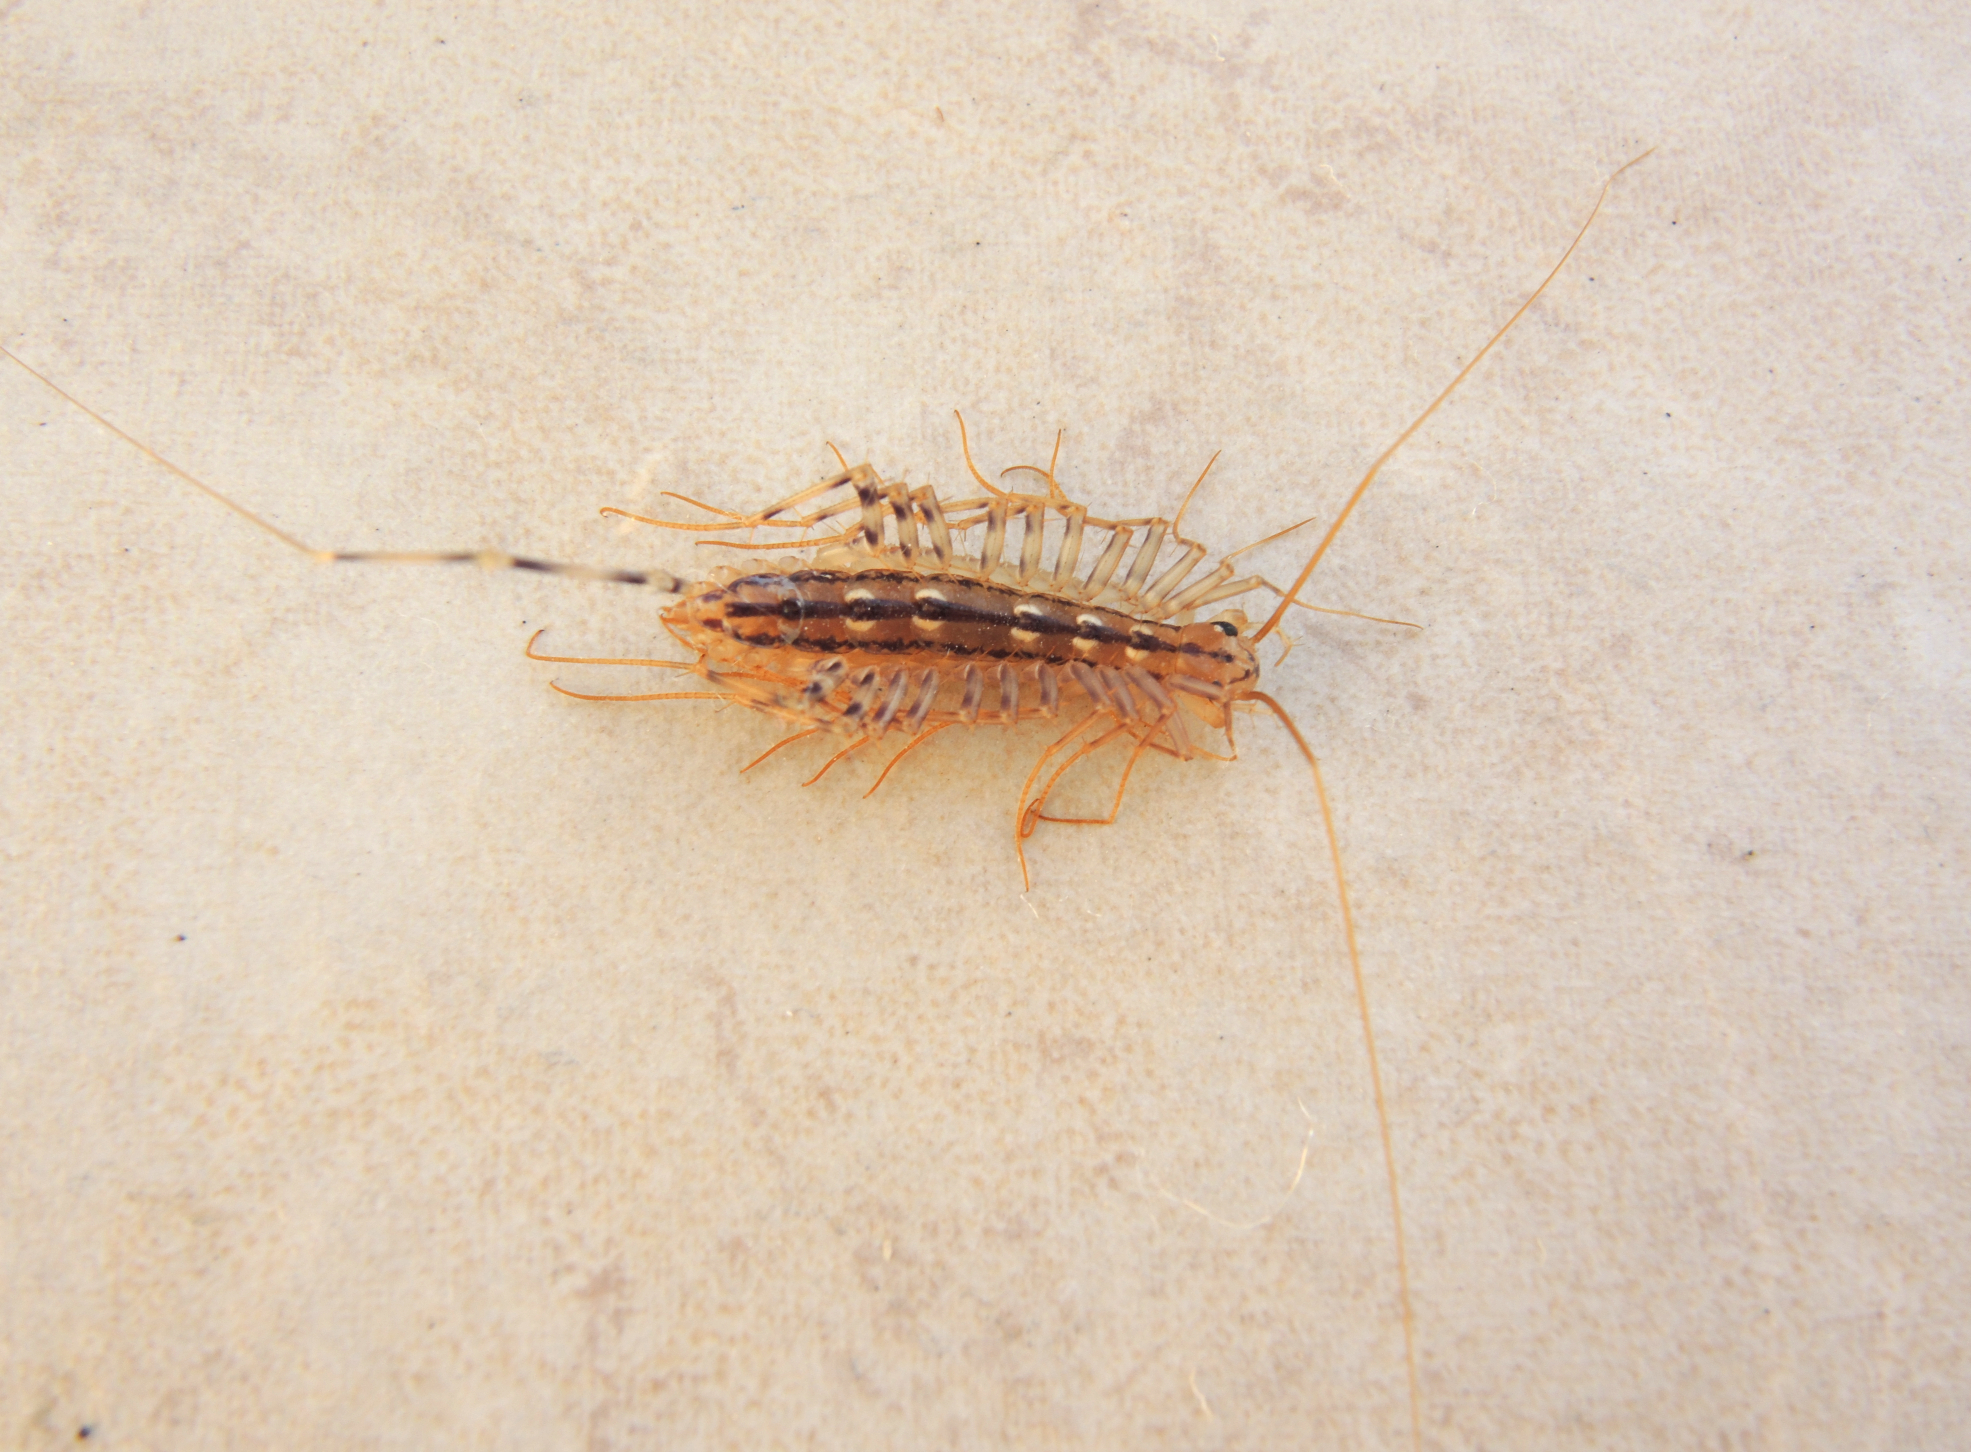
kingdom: Animalia
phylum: Arthropoda
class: Chilopoda
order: Scutigeromorpha
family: Scutigeridae
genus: Scutigera
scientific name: Scutigera coleoptrata
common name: House centipede
